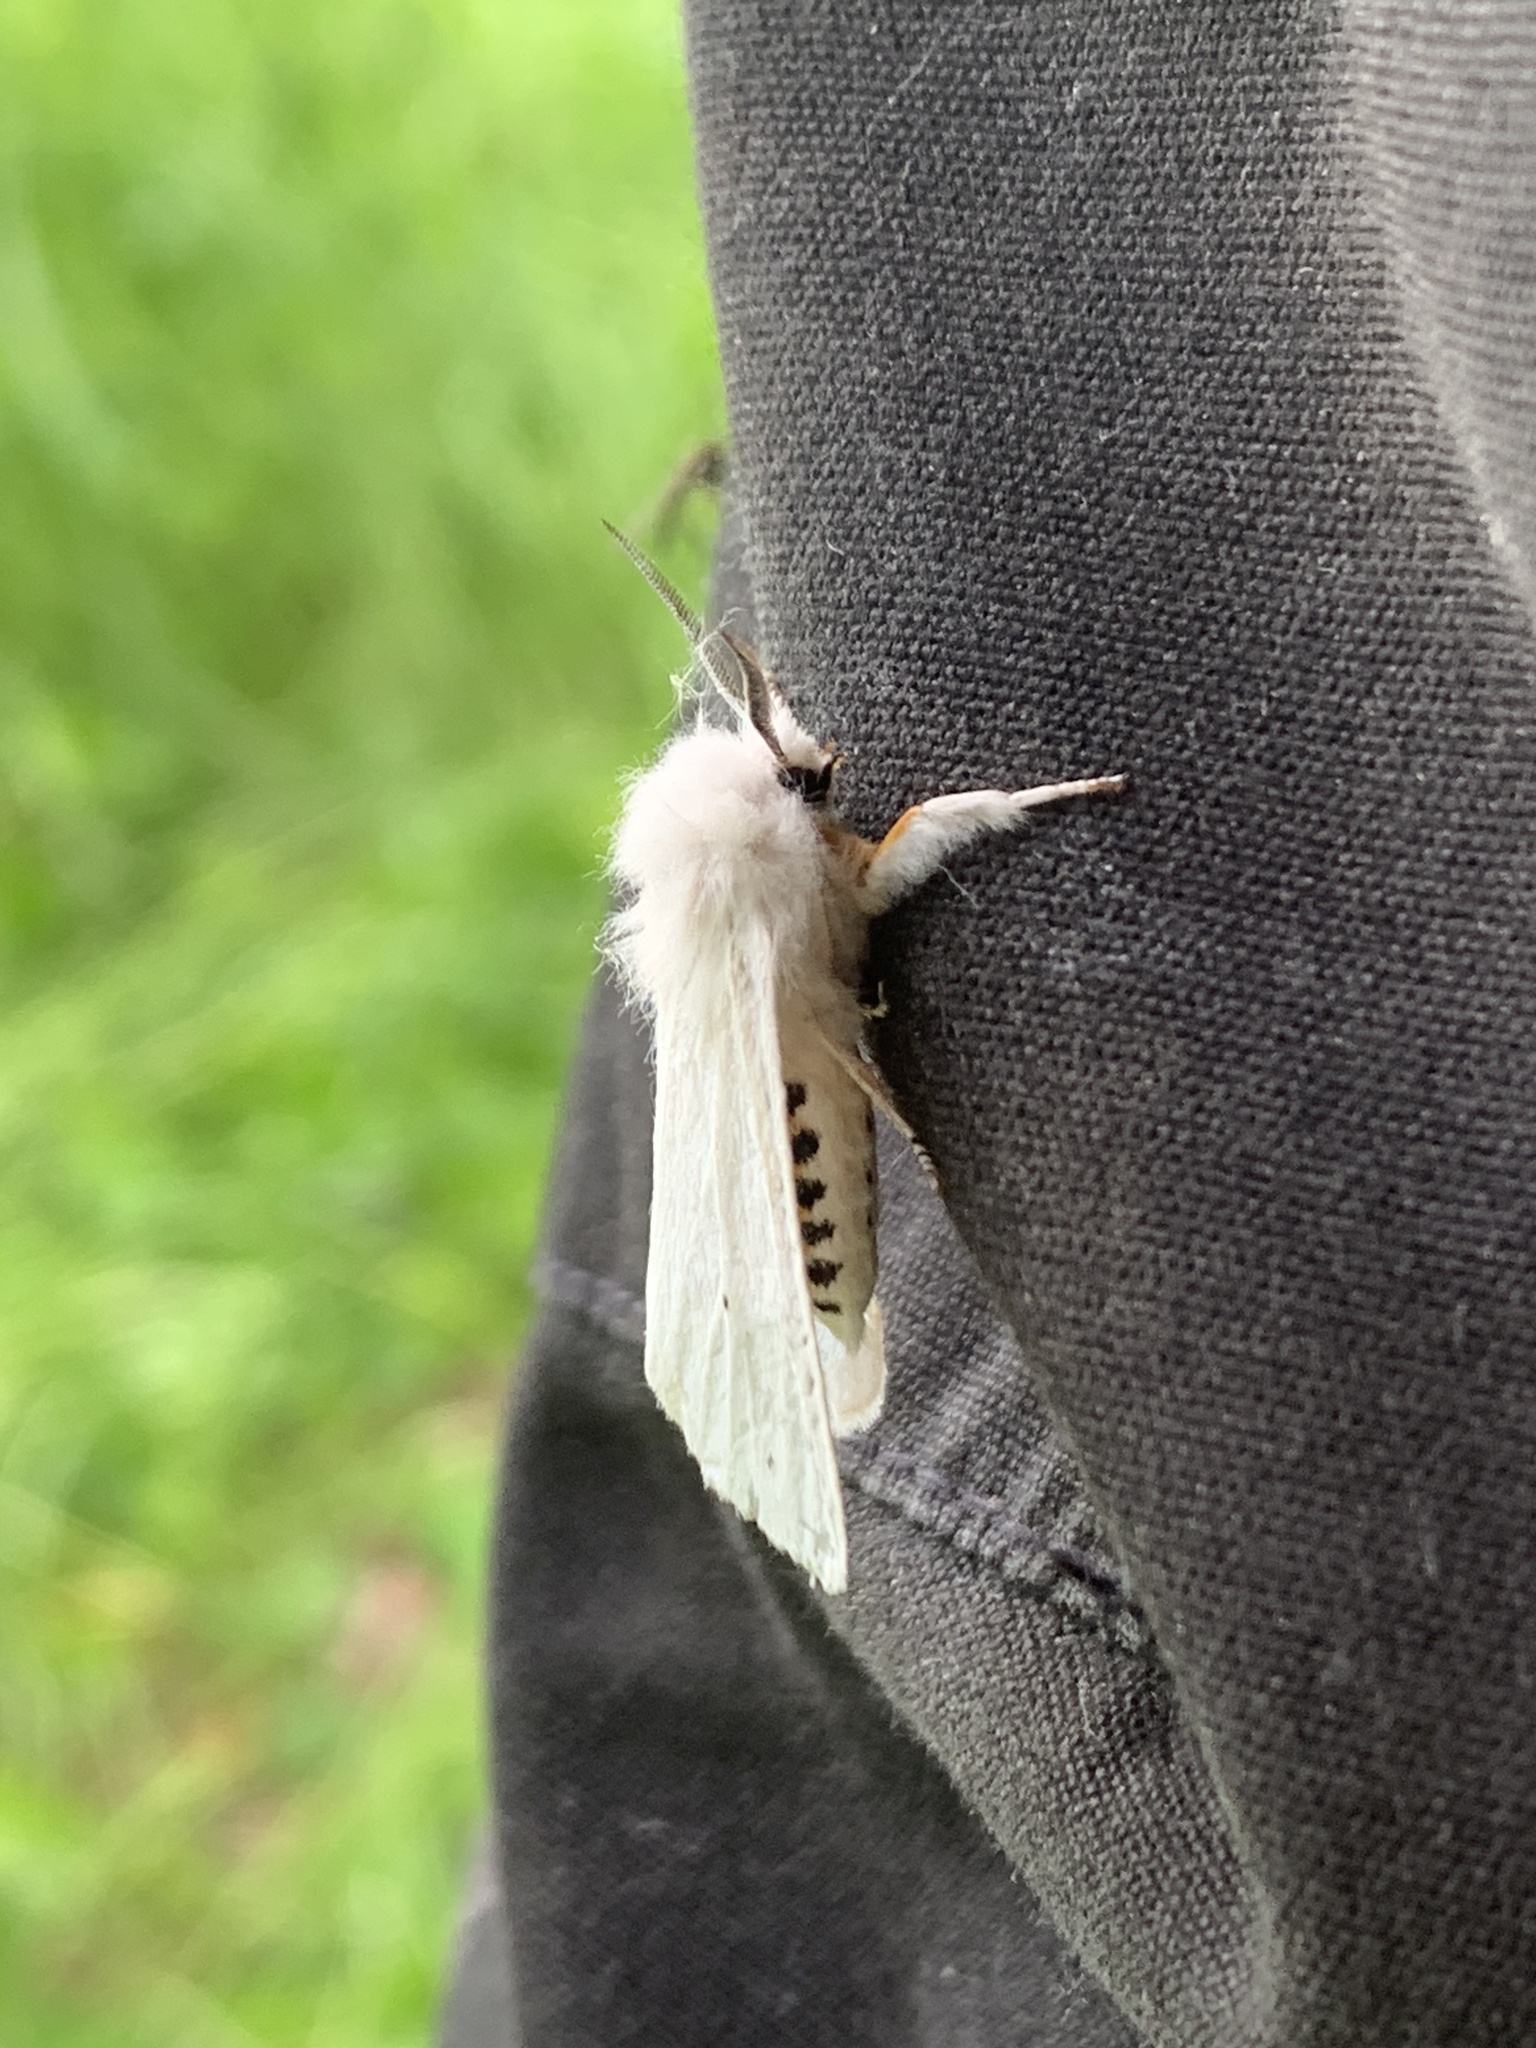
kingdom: Animalia
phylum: Arthropoda
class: Insecta
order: Lepidoptera
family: Erebidae
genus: Spilosoma
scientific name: Spilosoma virginica
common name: Virginia tiger moth
